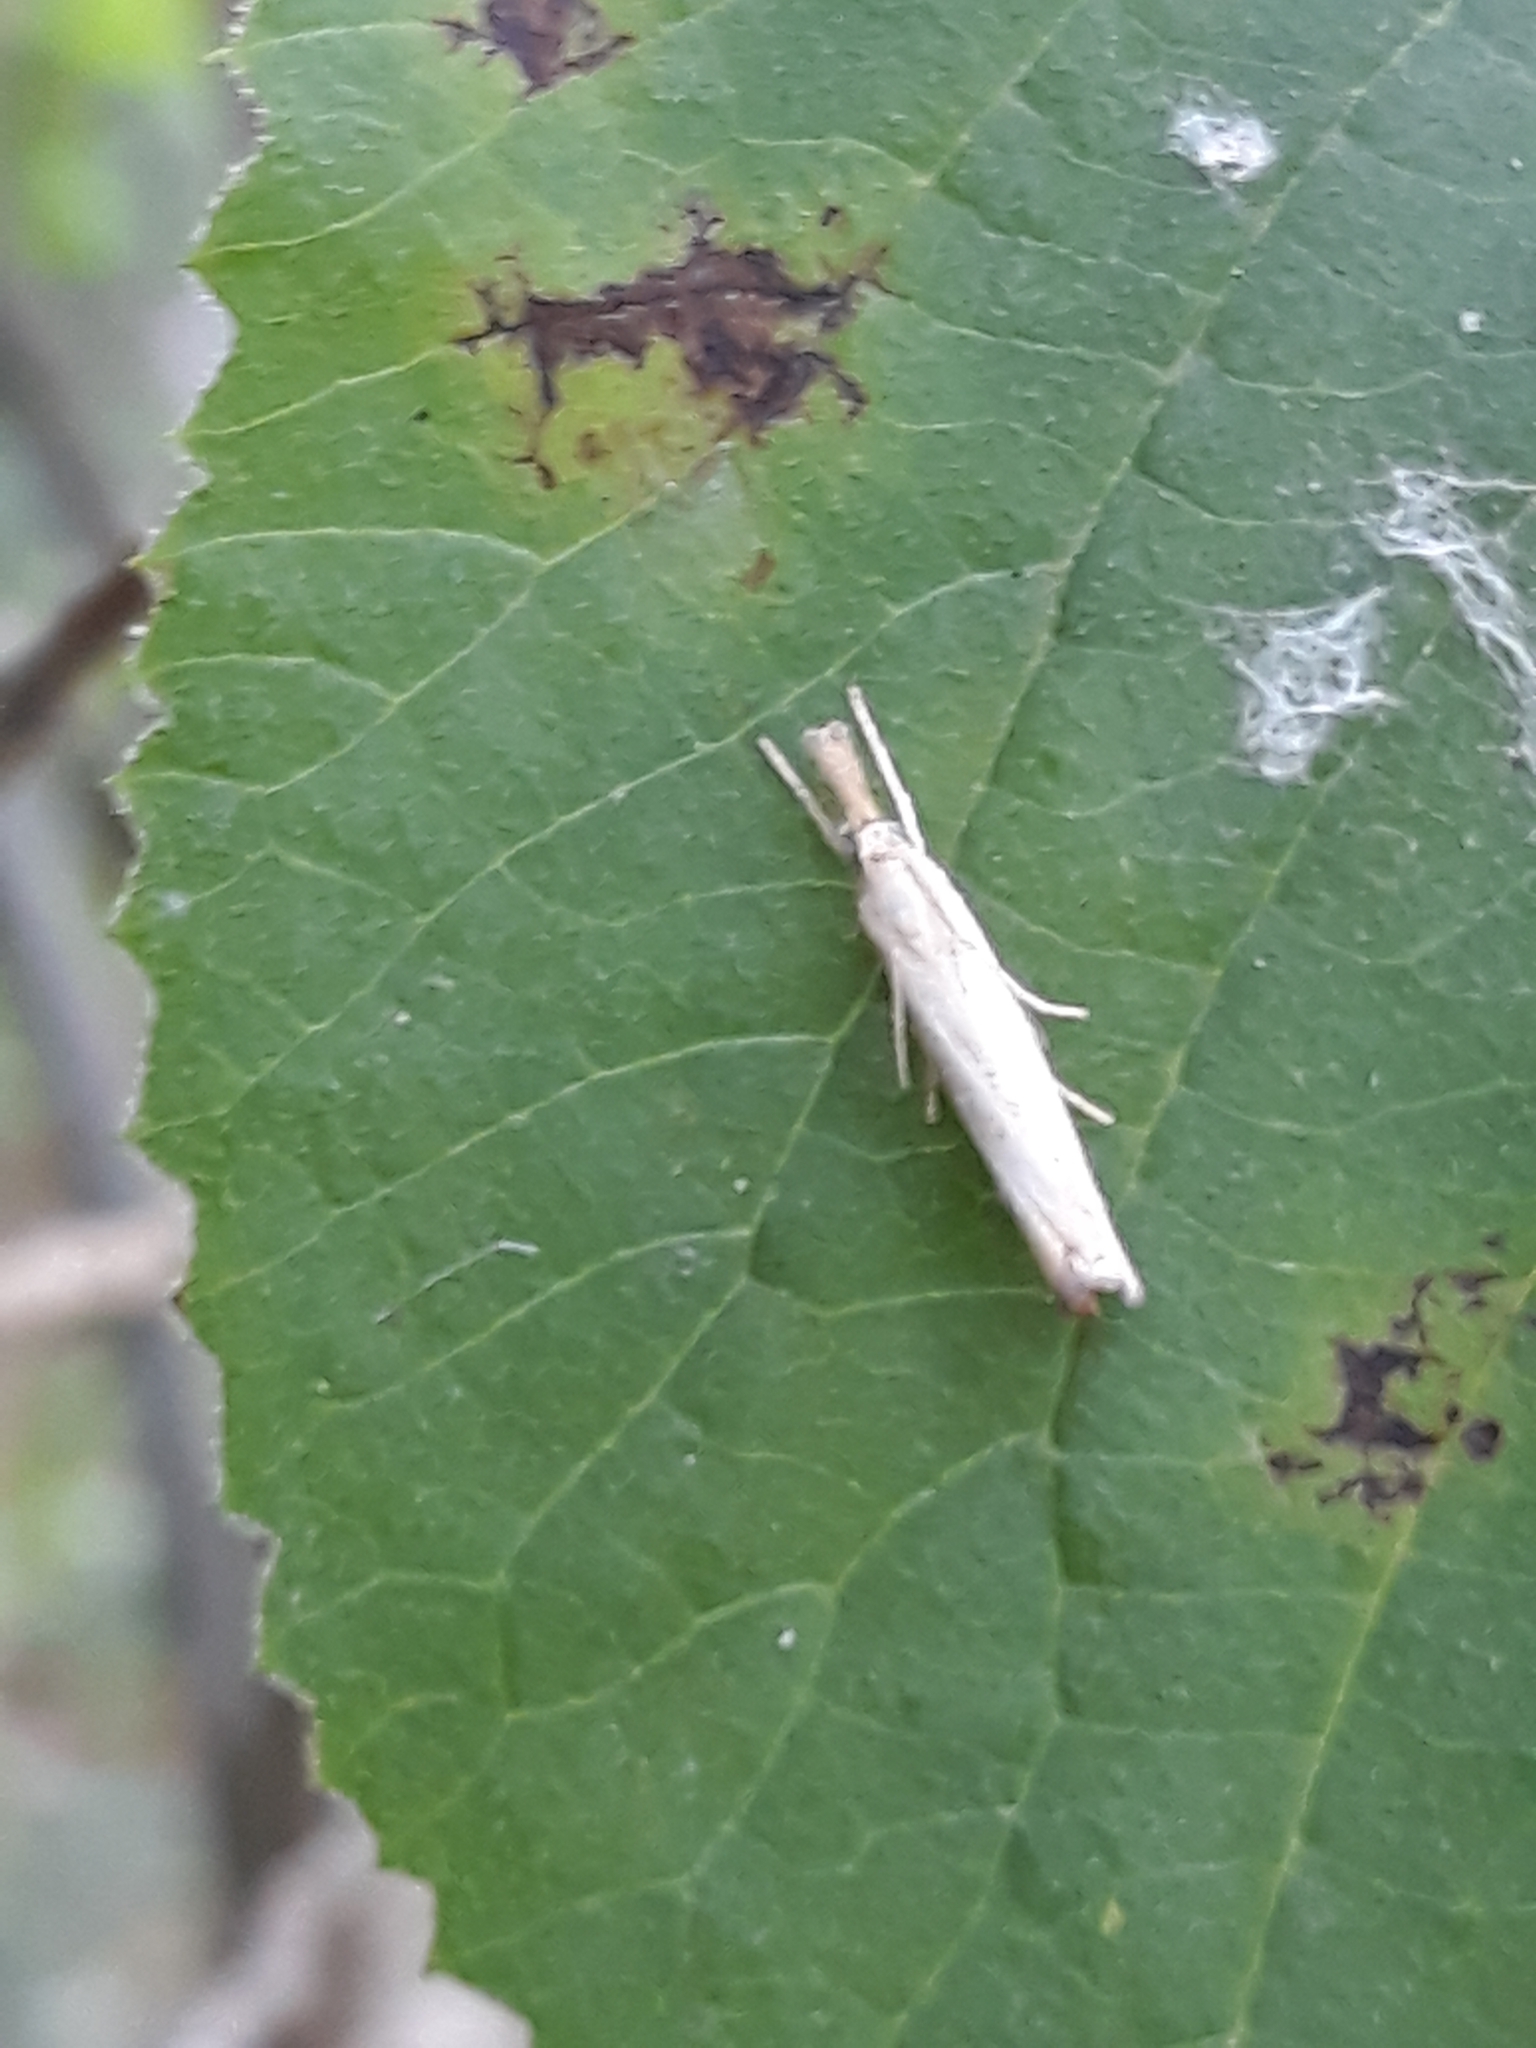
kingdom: Animalia
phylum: Arthropoda
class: Insecta
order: Lepidoptera
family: Crambidae
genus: Agriphila
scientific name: Agriphila straminella
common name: Straw grass-veneer
